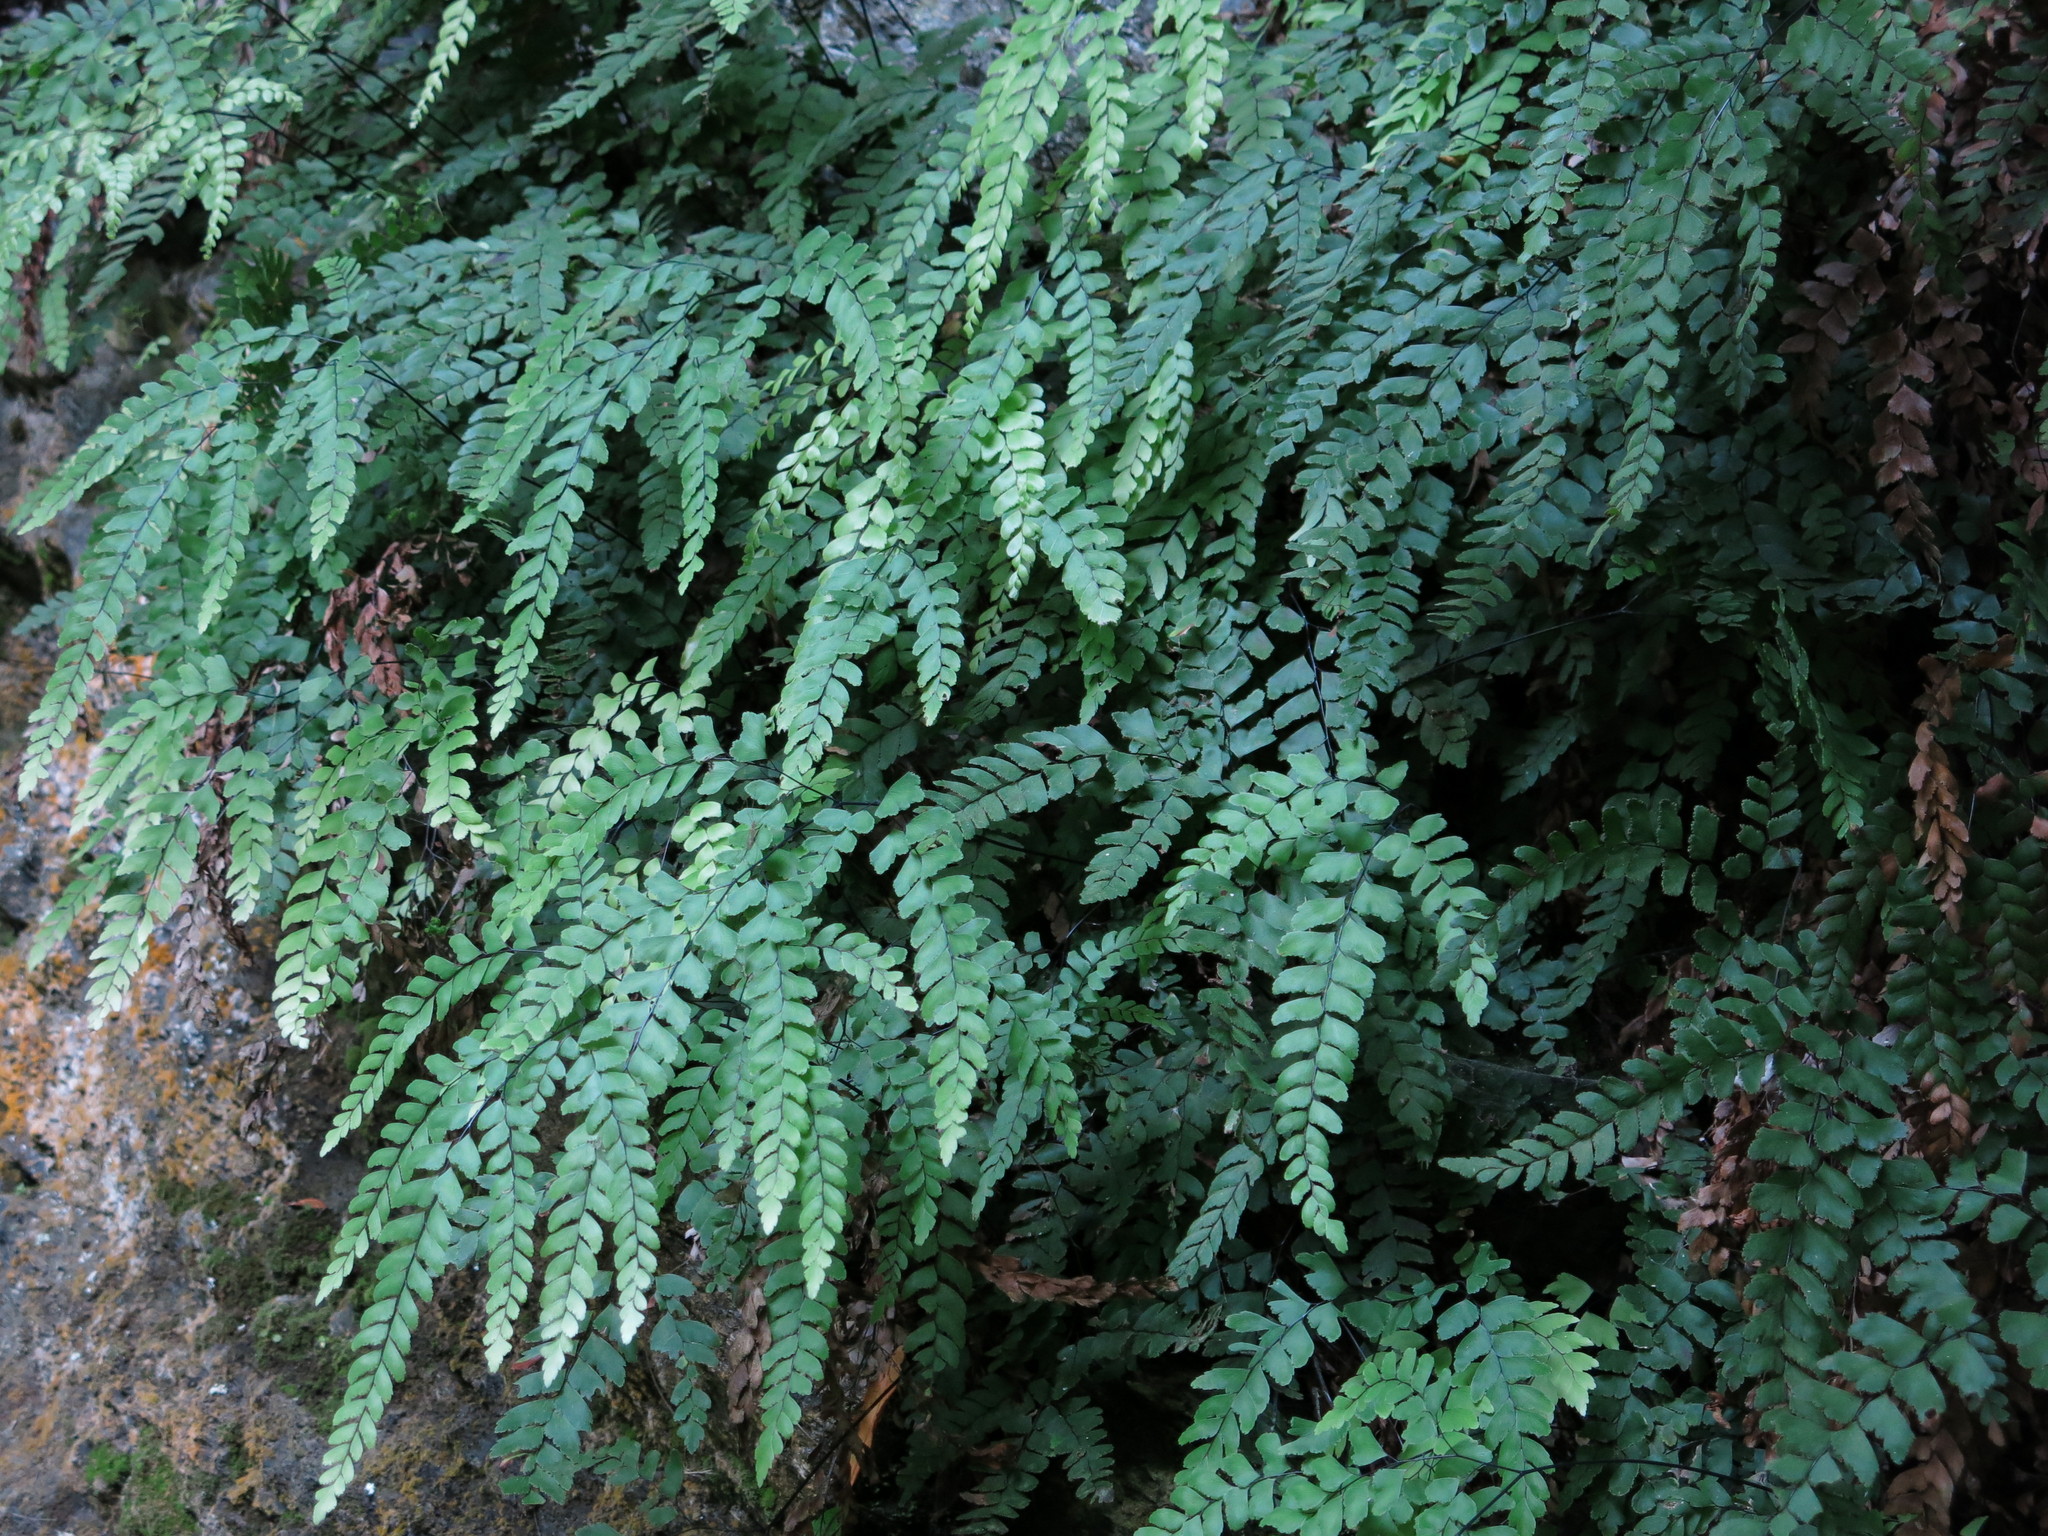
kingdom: Plantae
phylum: Tracheophyta
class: Polypodiopsida
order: Polypodiales
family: Pteridaceae
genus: Adiantum
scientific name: Adiantum cunninghamii
